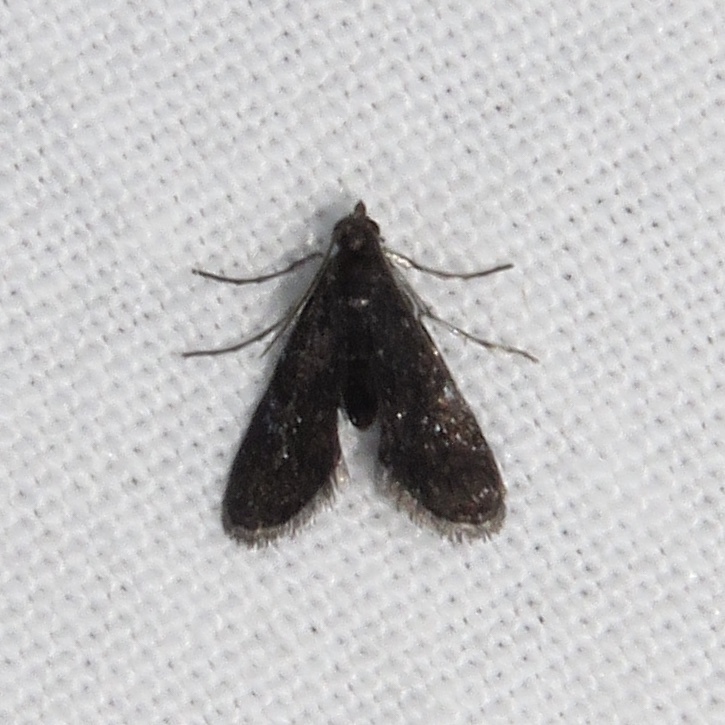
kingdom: Animalia
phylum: Arthropoda
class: Insecta
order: Lepidoptera
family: Crambidae
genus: Elophila
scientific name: Elophila tinealis
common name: Black duckweed moth
